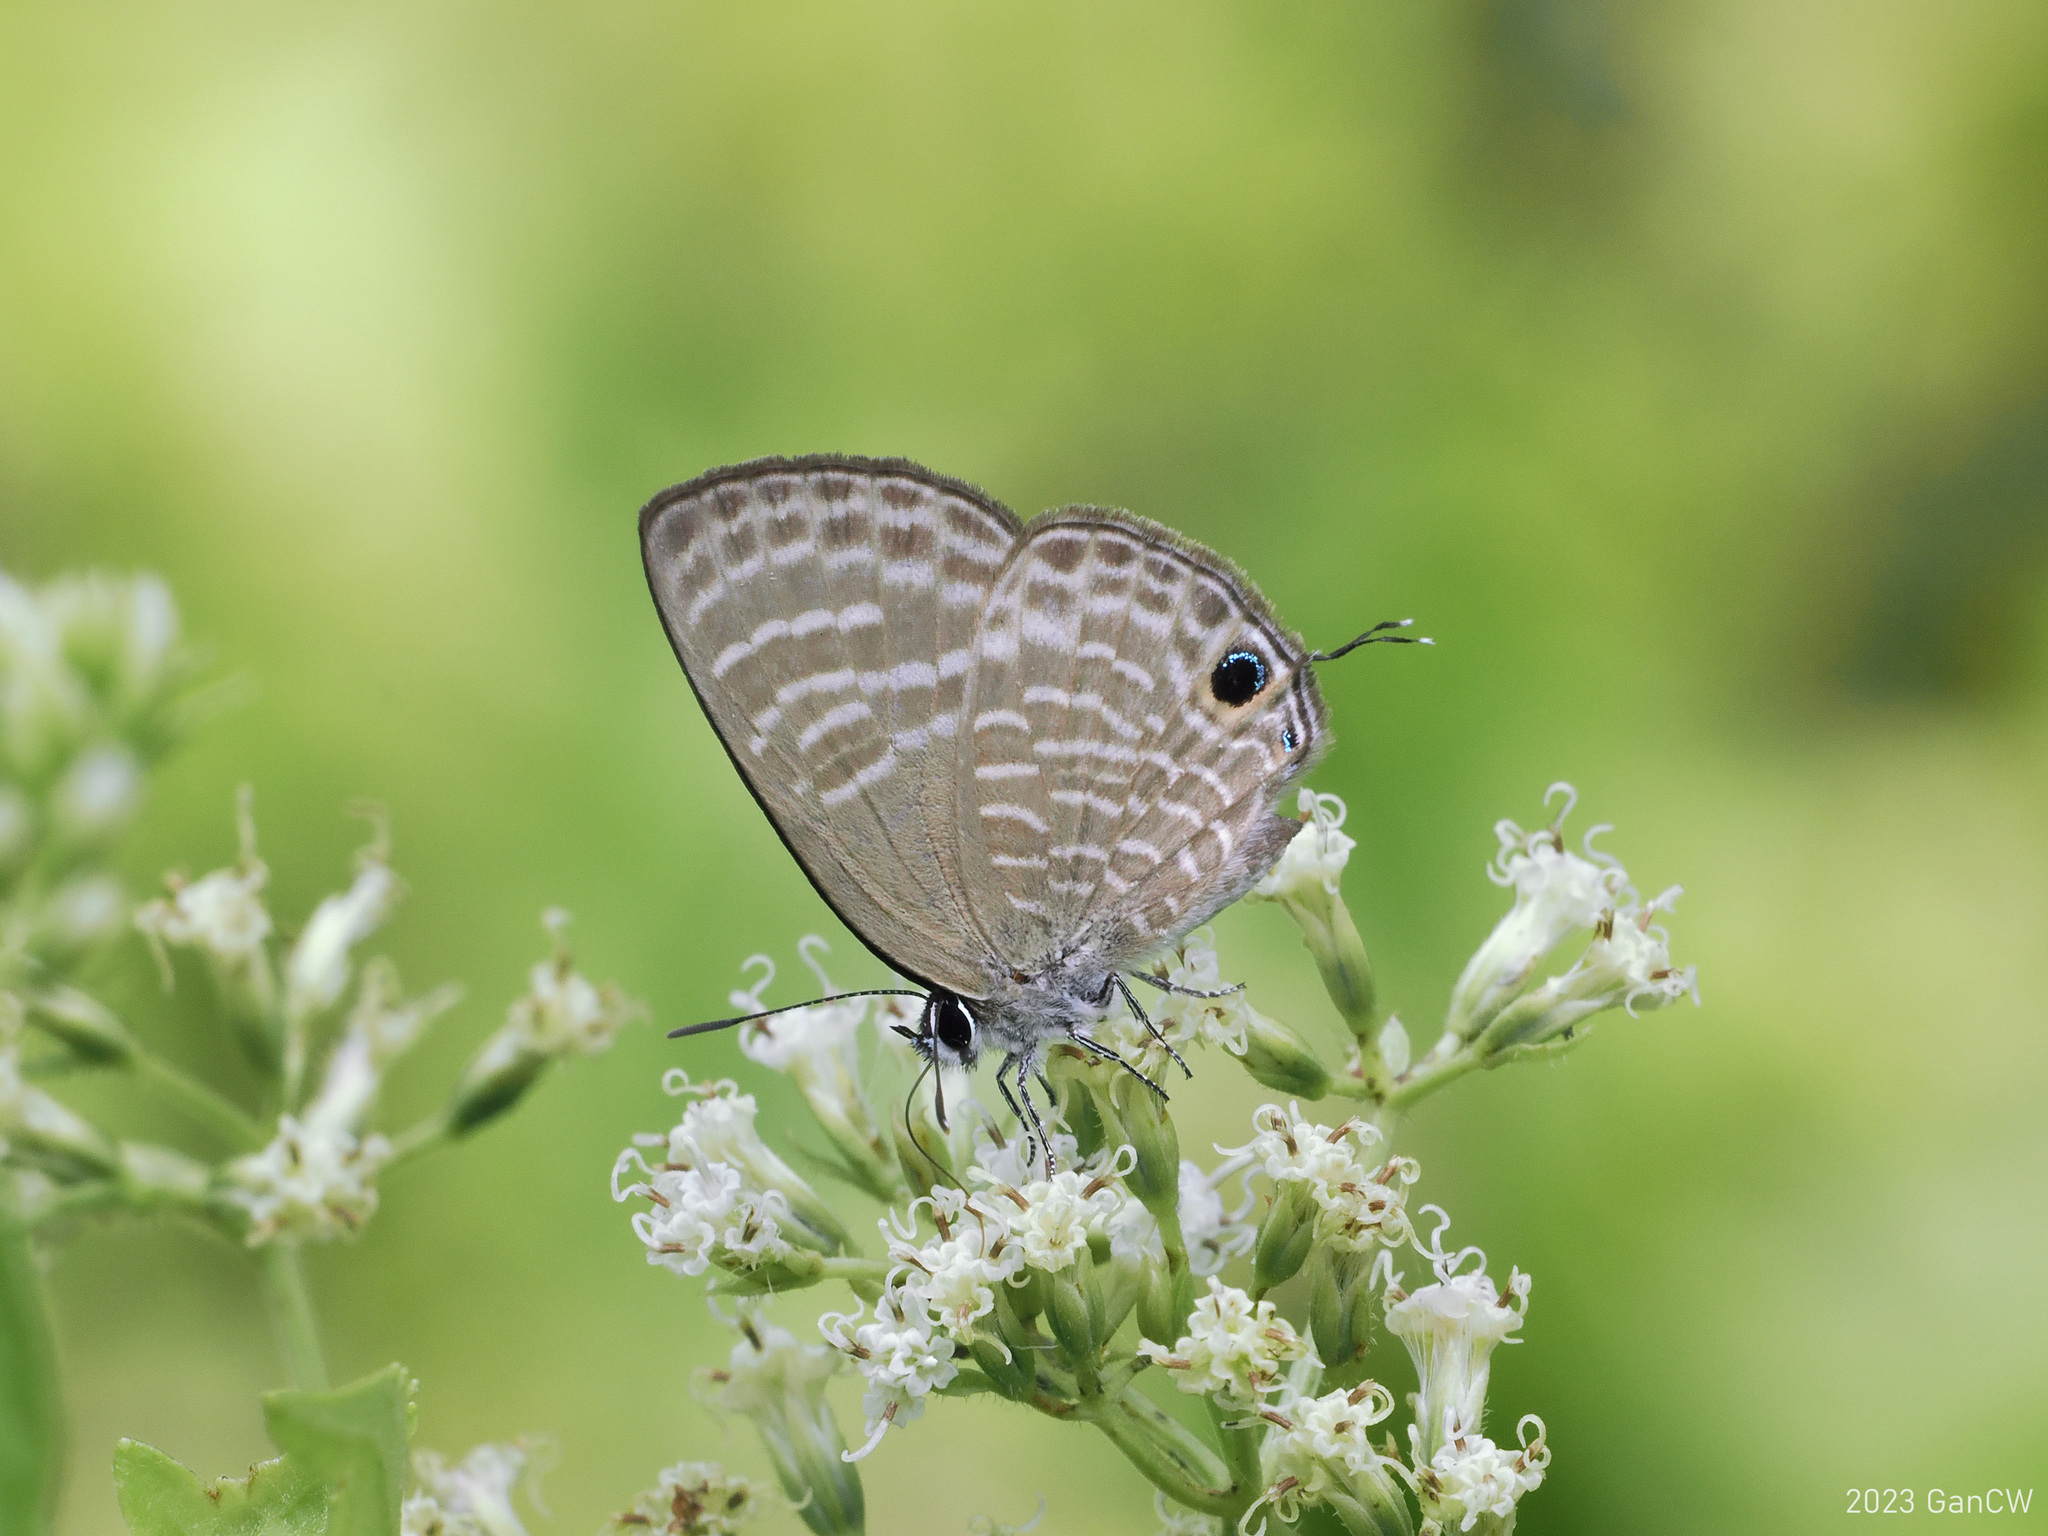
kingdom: Animalia
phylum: Arthropoda
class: Insecta
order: Lepidoptera
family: Lycaenidae
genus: Nacaduba
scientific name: Nacaduba pactolus
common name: Large fourline blue
